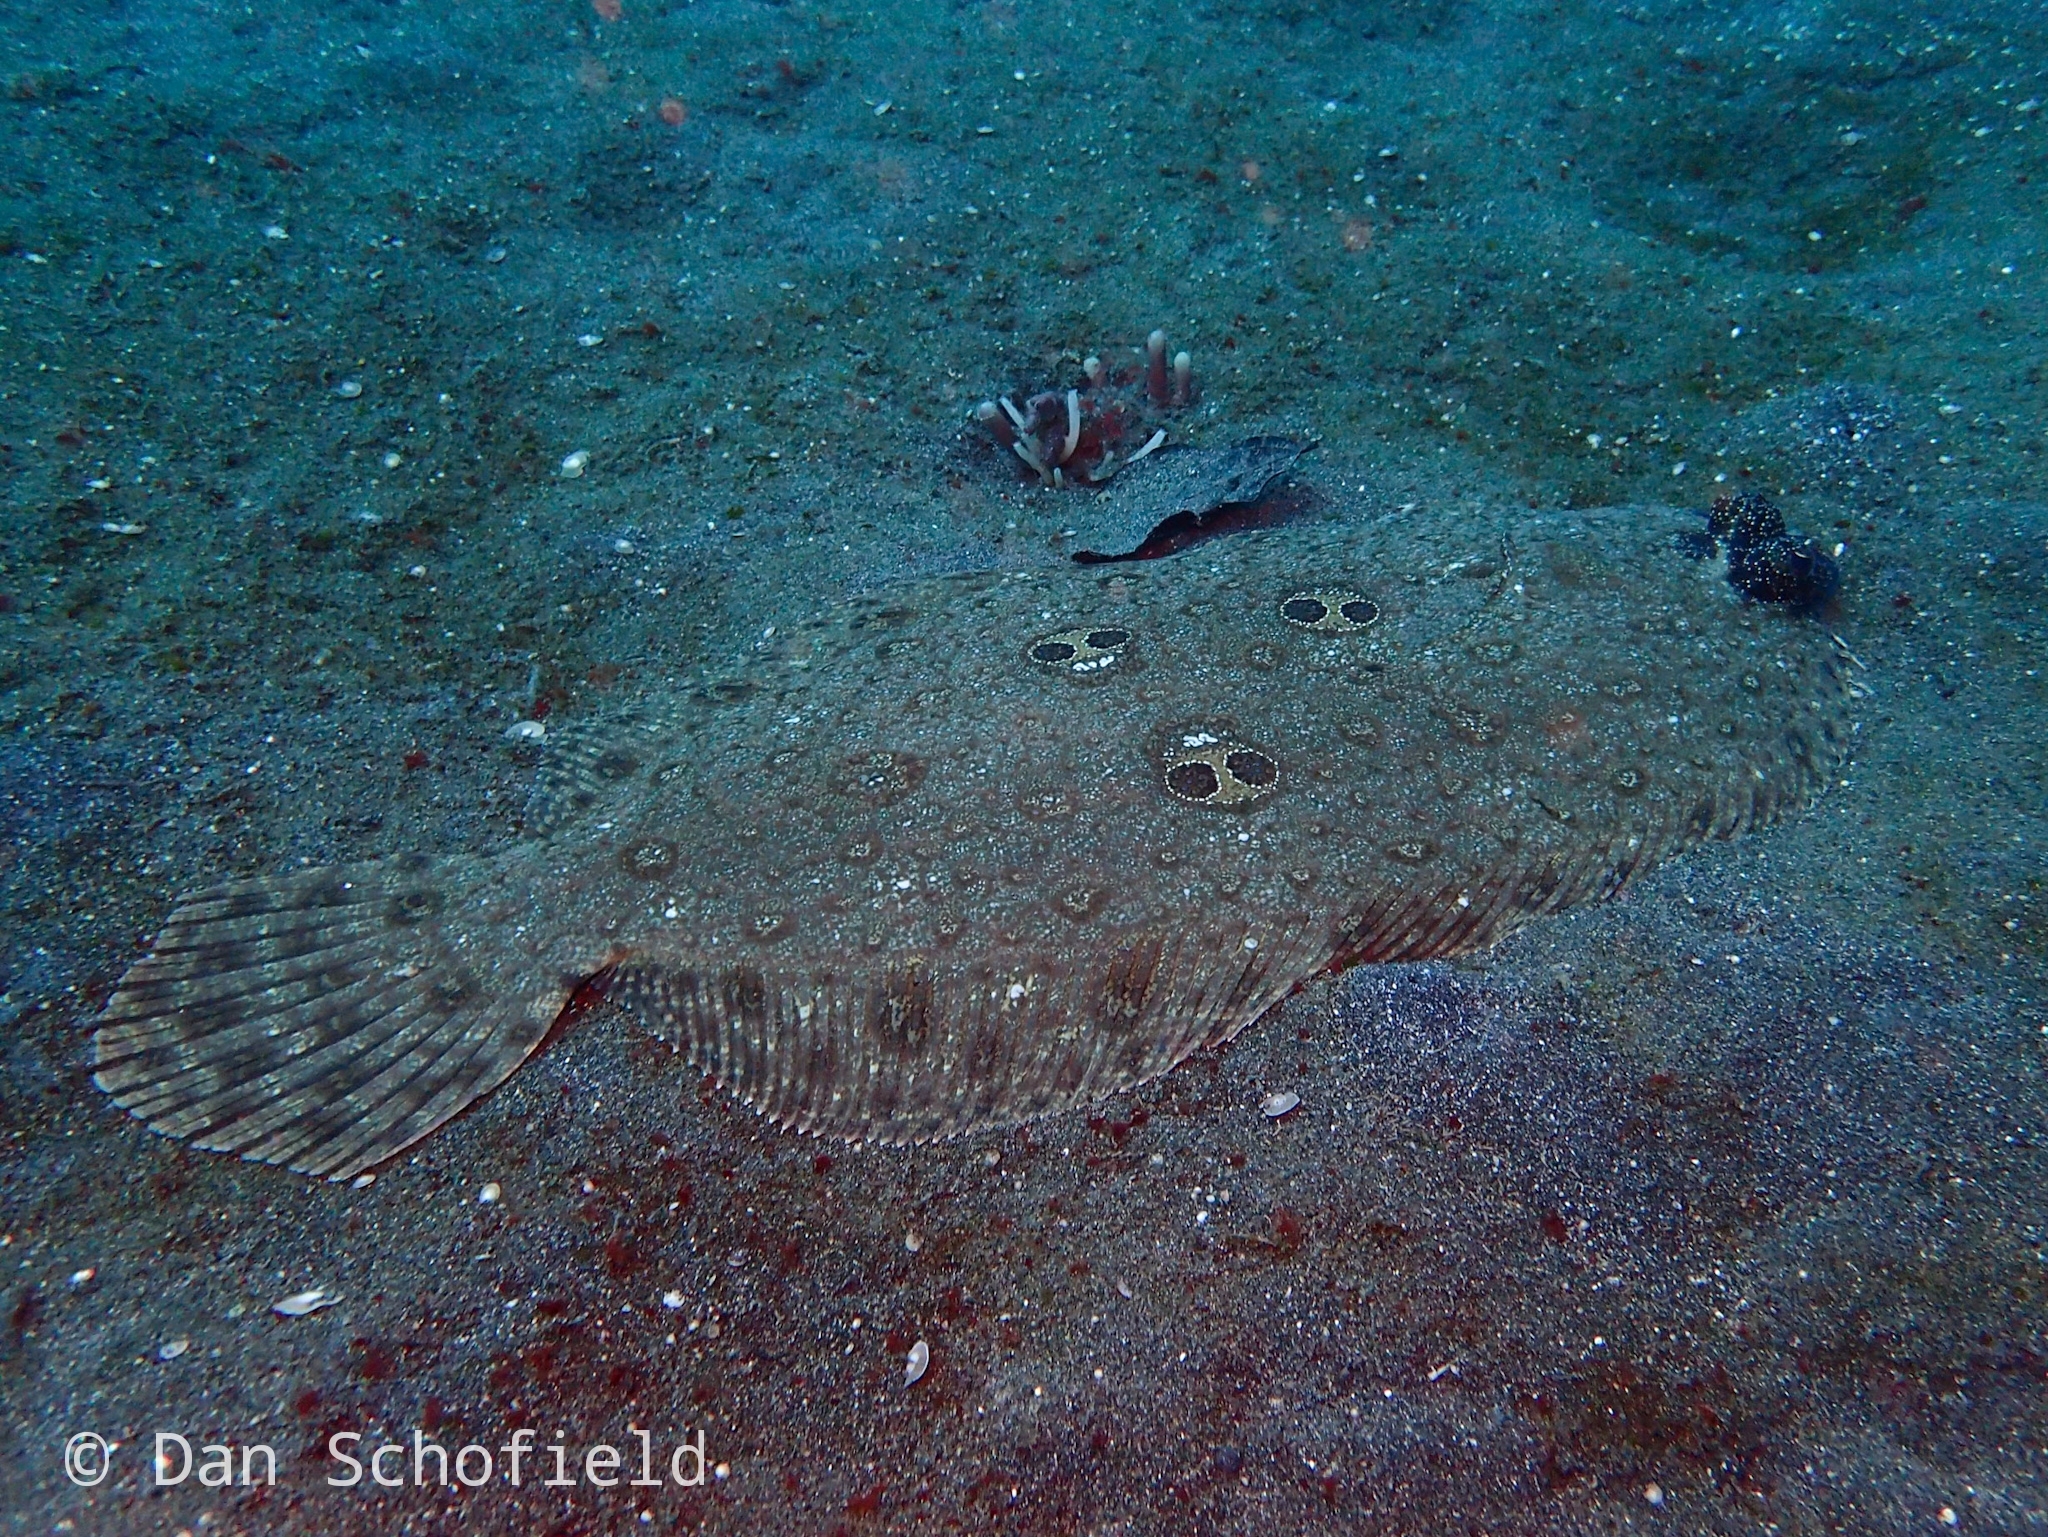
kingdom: Animalia
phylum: Chordata
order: Pleuronectiformes
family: Paralichthyidae
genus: Pseudorhombus
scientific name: Pseudorhombus dupliciocellatus
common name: Ocellated flounder
